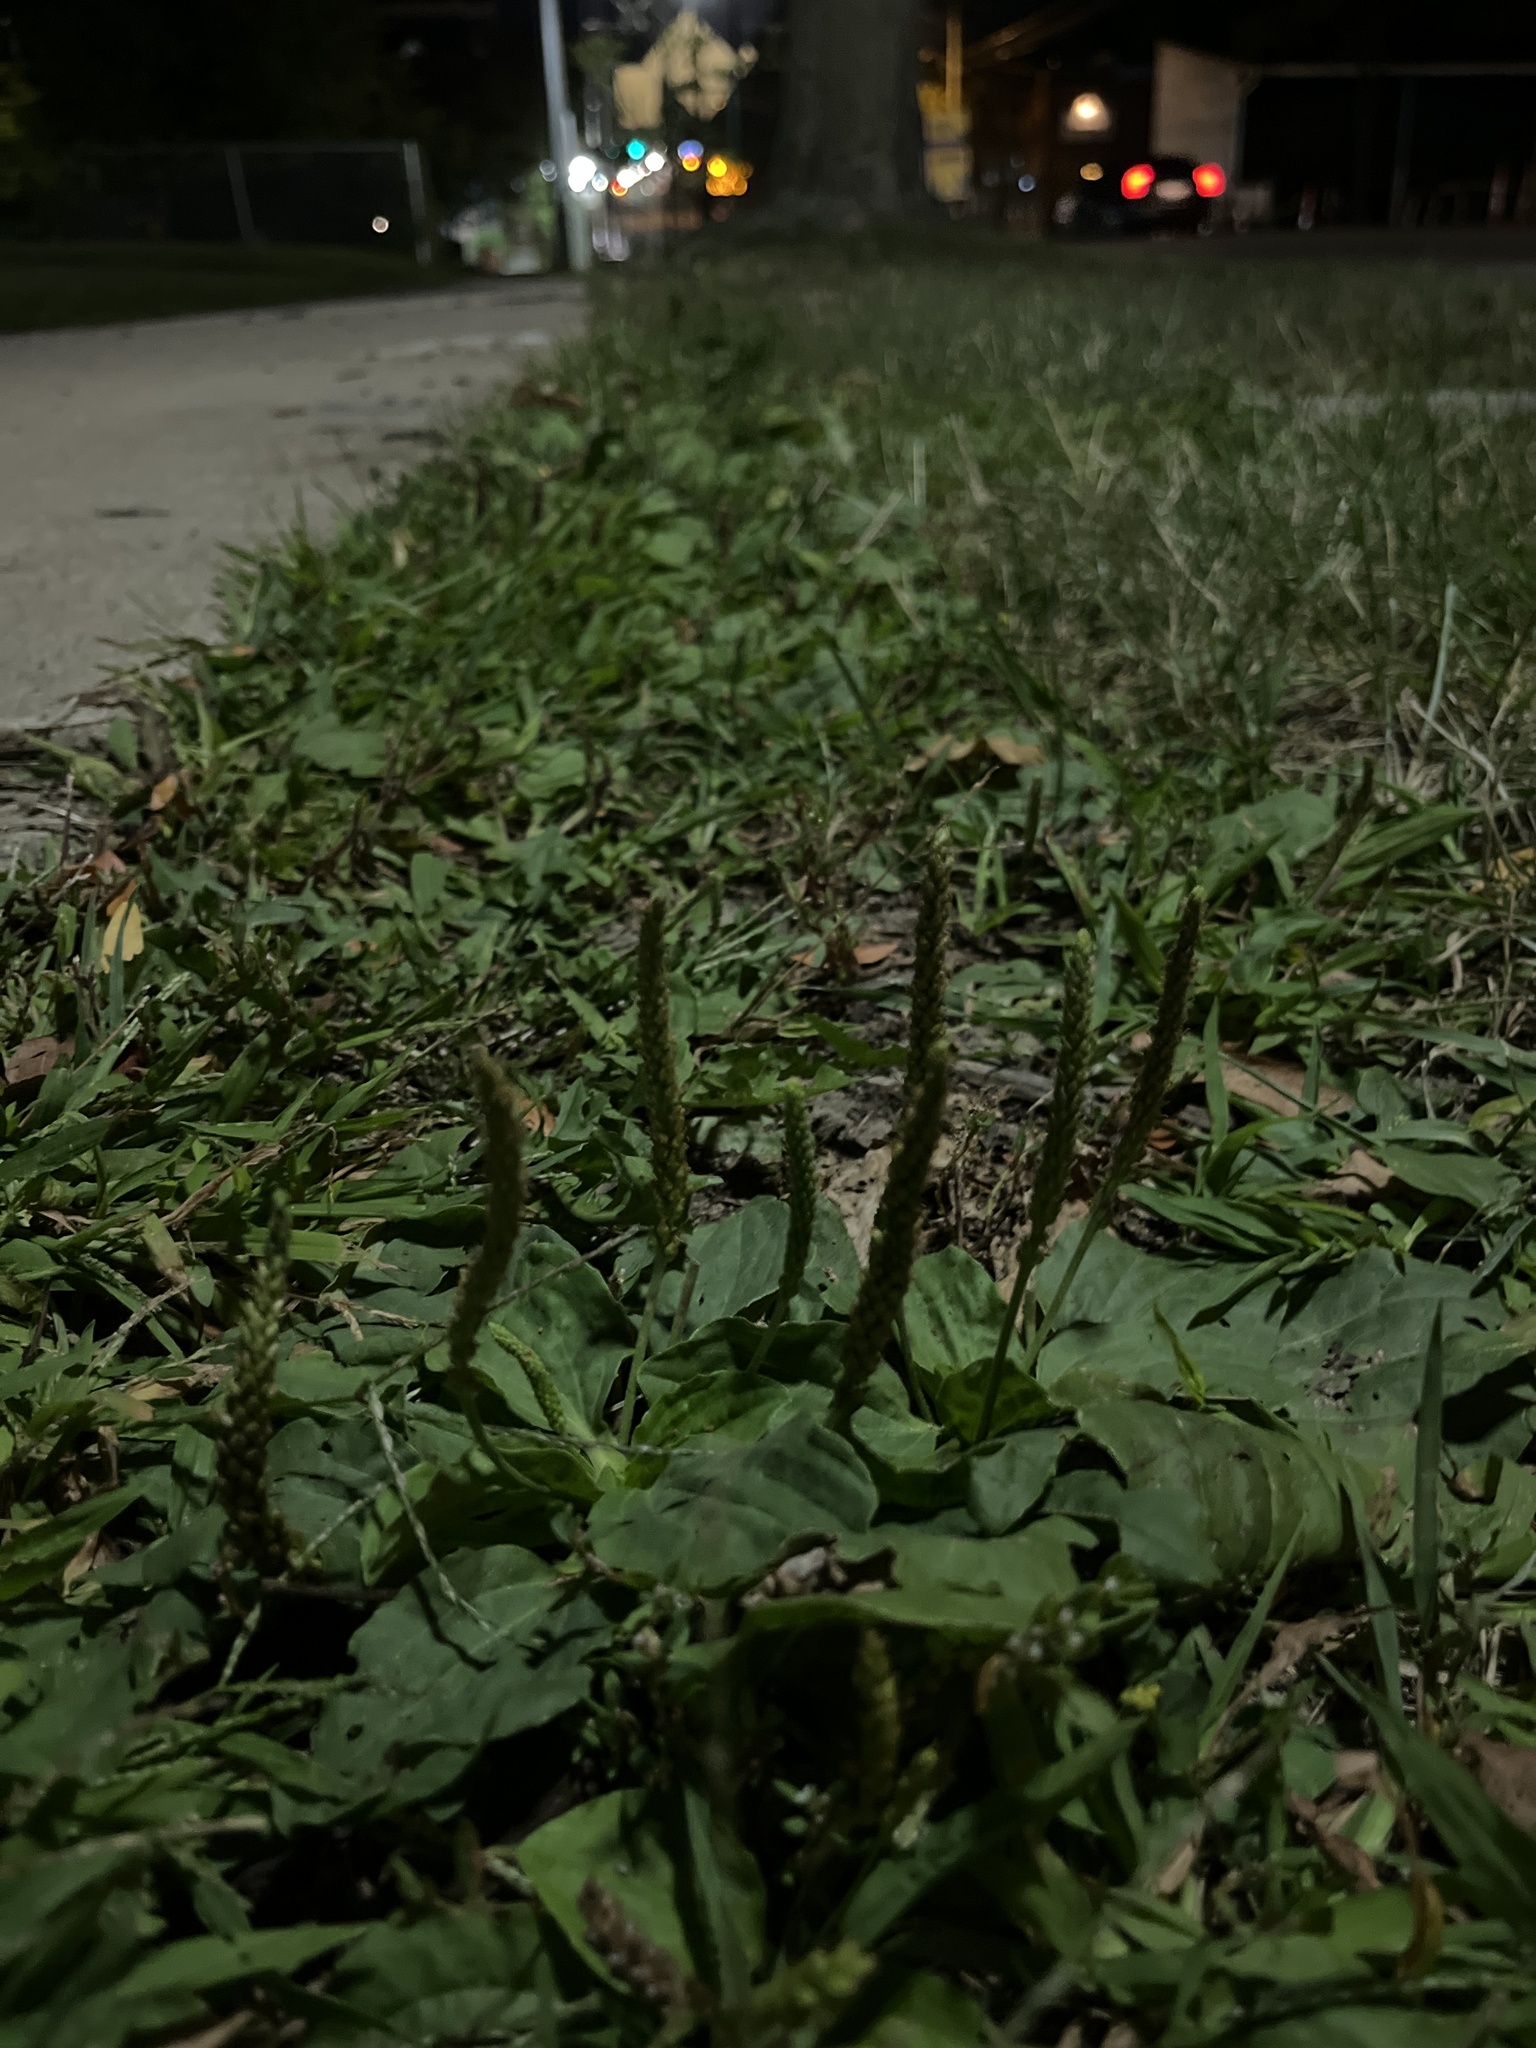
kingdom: Plantae
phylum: Tracheophyta
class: Magnoliopsida
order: Lamiales
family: Plantaginaceae
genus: Plantago
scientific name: Plantago major
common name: Common plantain
